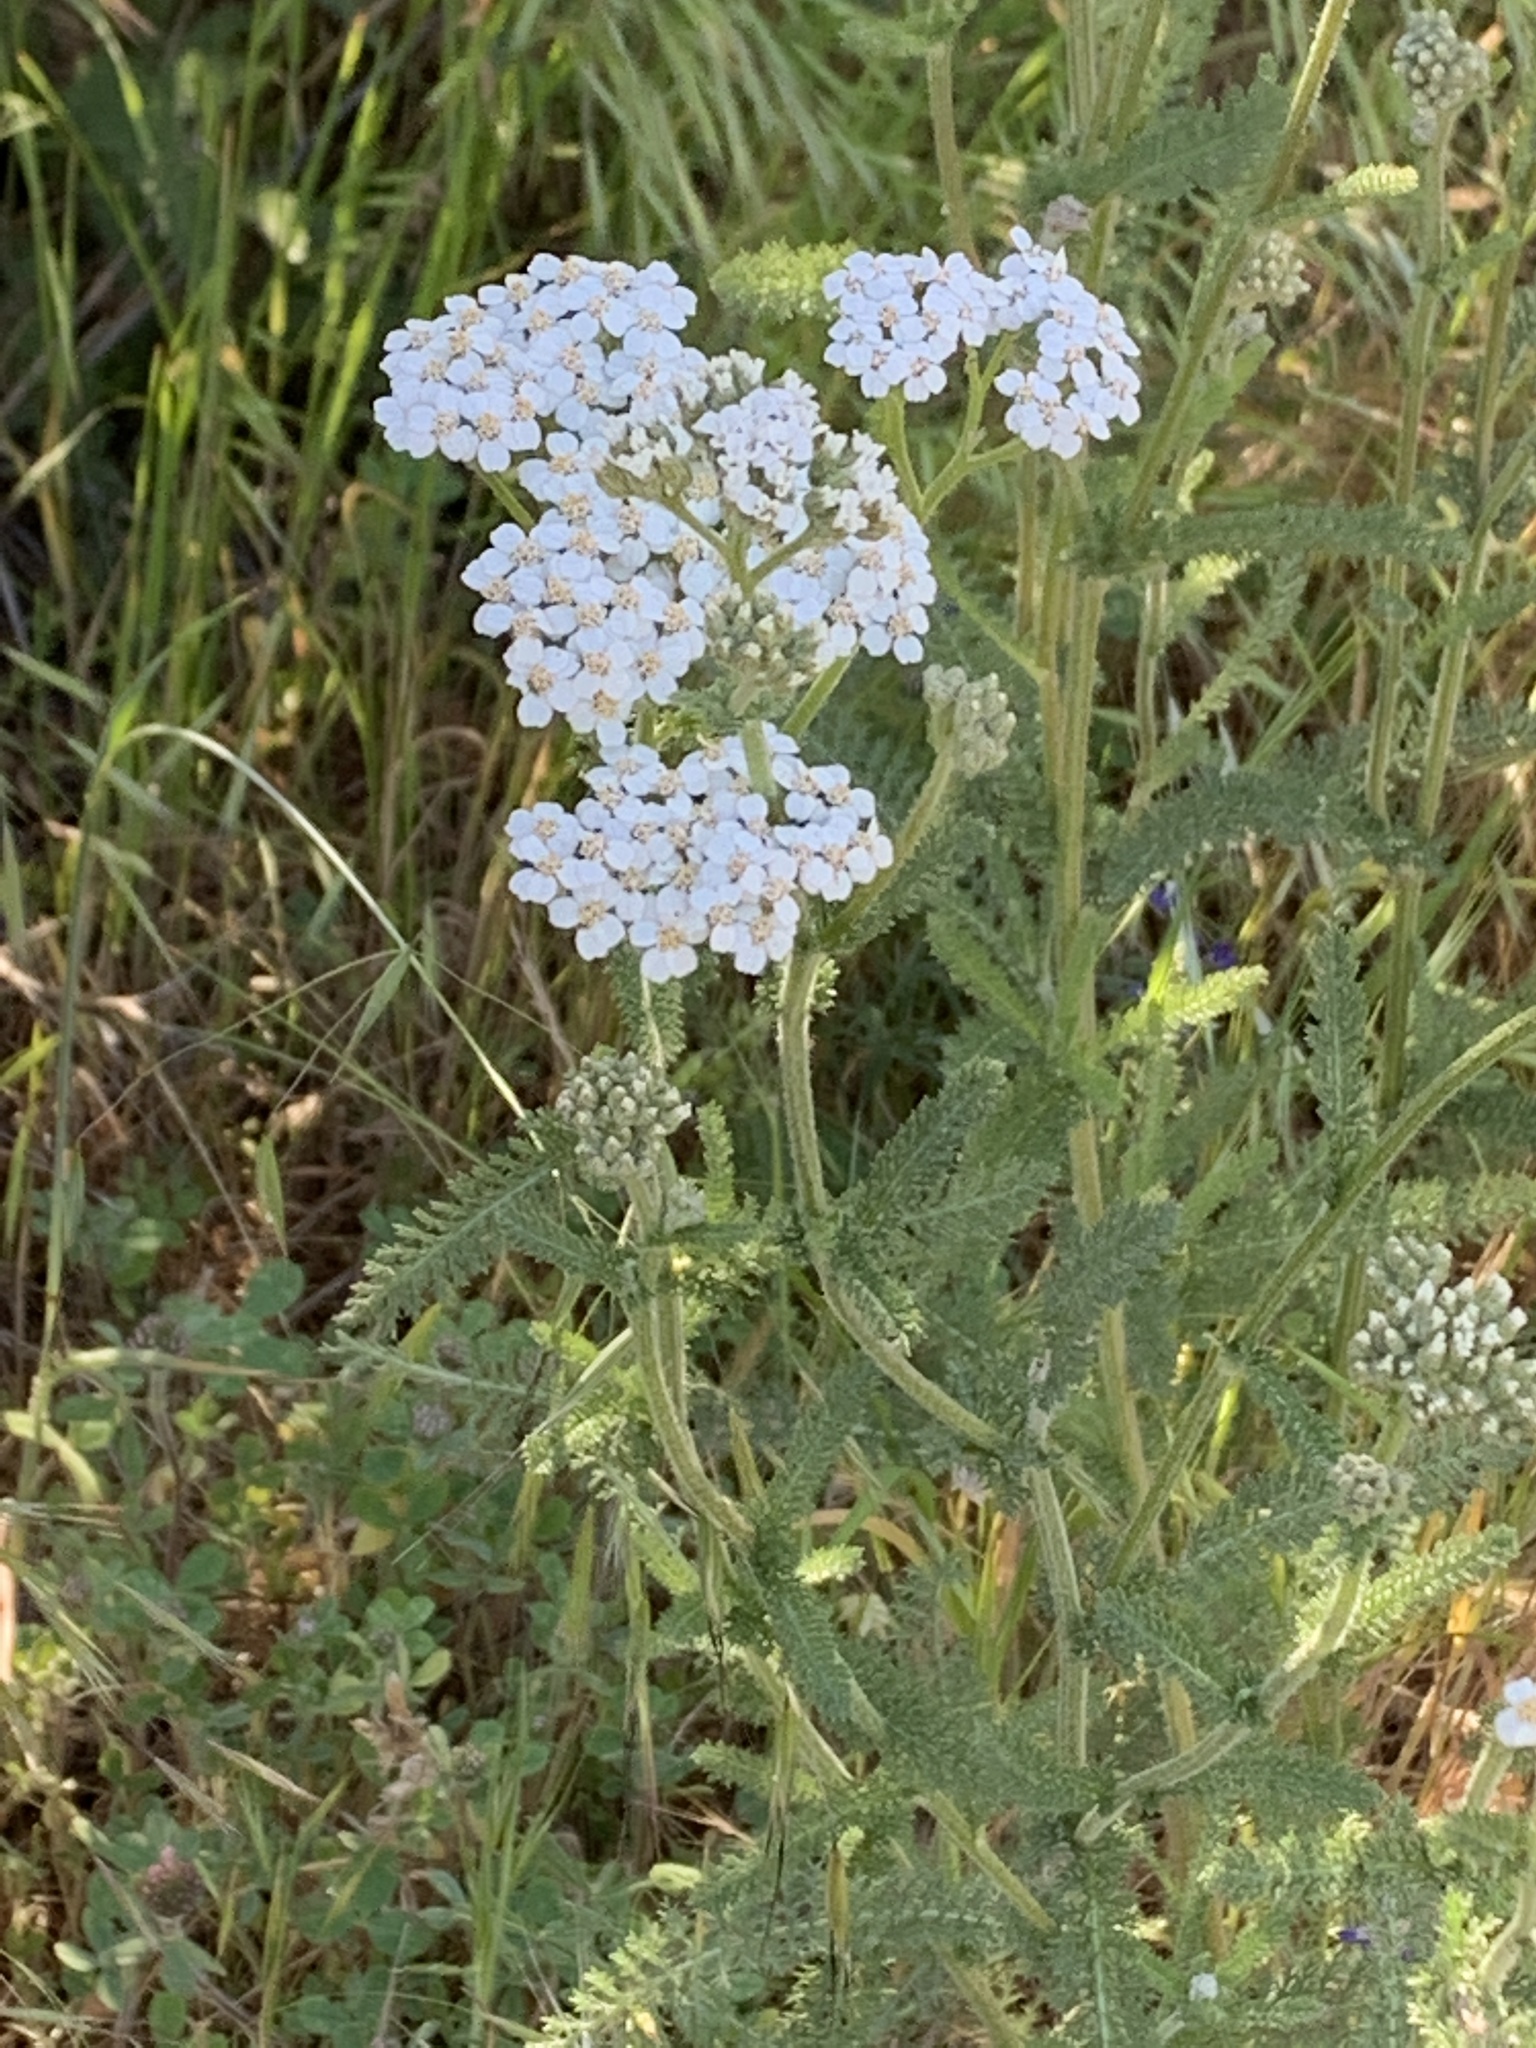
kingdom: Plantae
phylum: Tracheophyta
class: Magnoliopsida
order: Asterales
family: Asteraceae
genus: Achillea
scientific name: Achillea millefolium
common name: Yarrow
